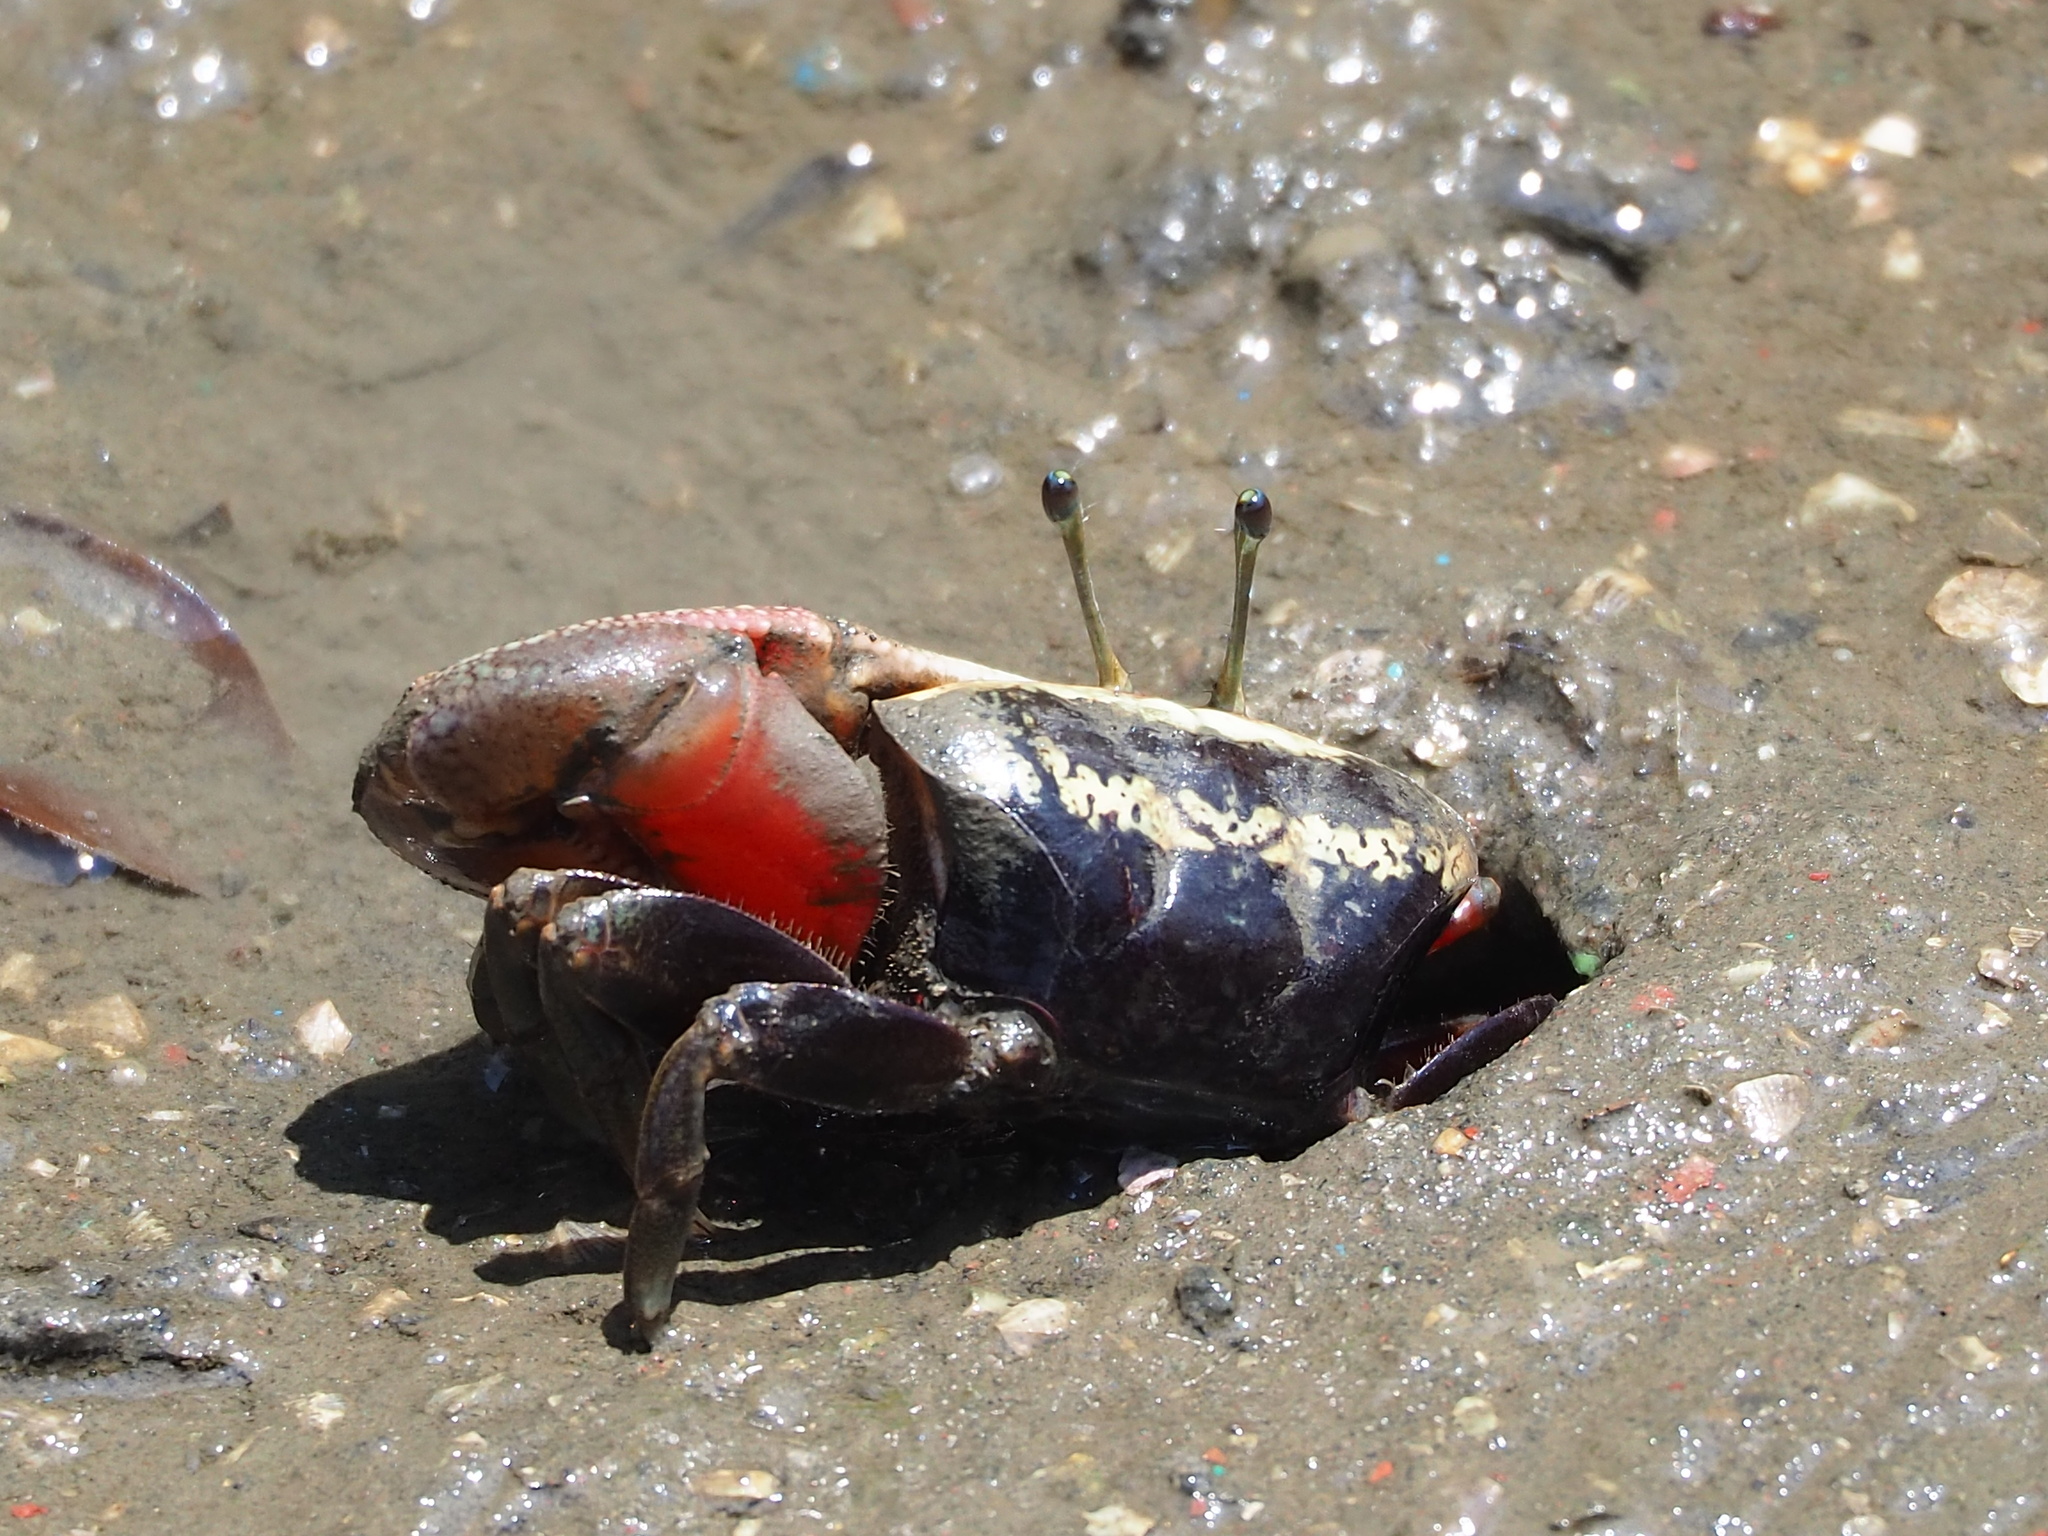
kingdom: Animalia
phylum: Arthropoda
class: Malacostraca
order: Decapoda
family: Ocypodidae
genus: Tubuca
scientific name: Tubuca arcuata
